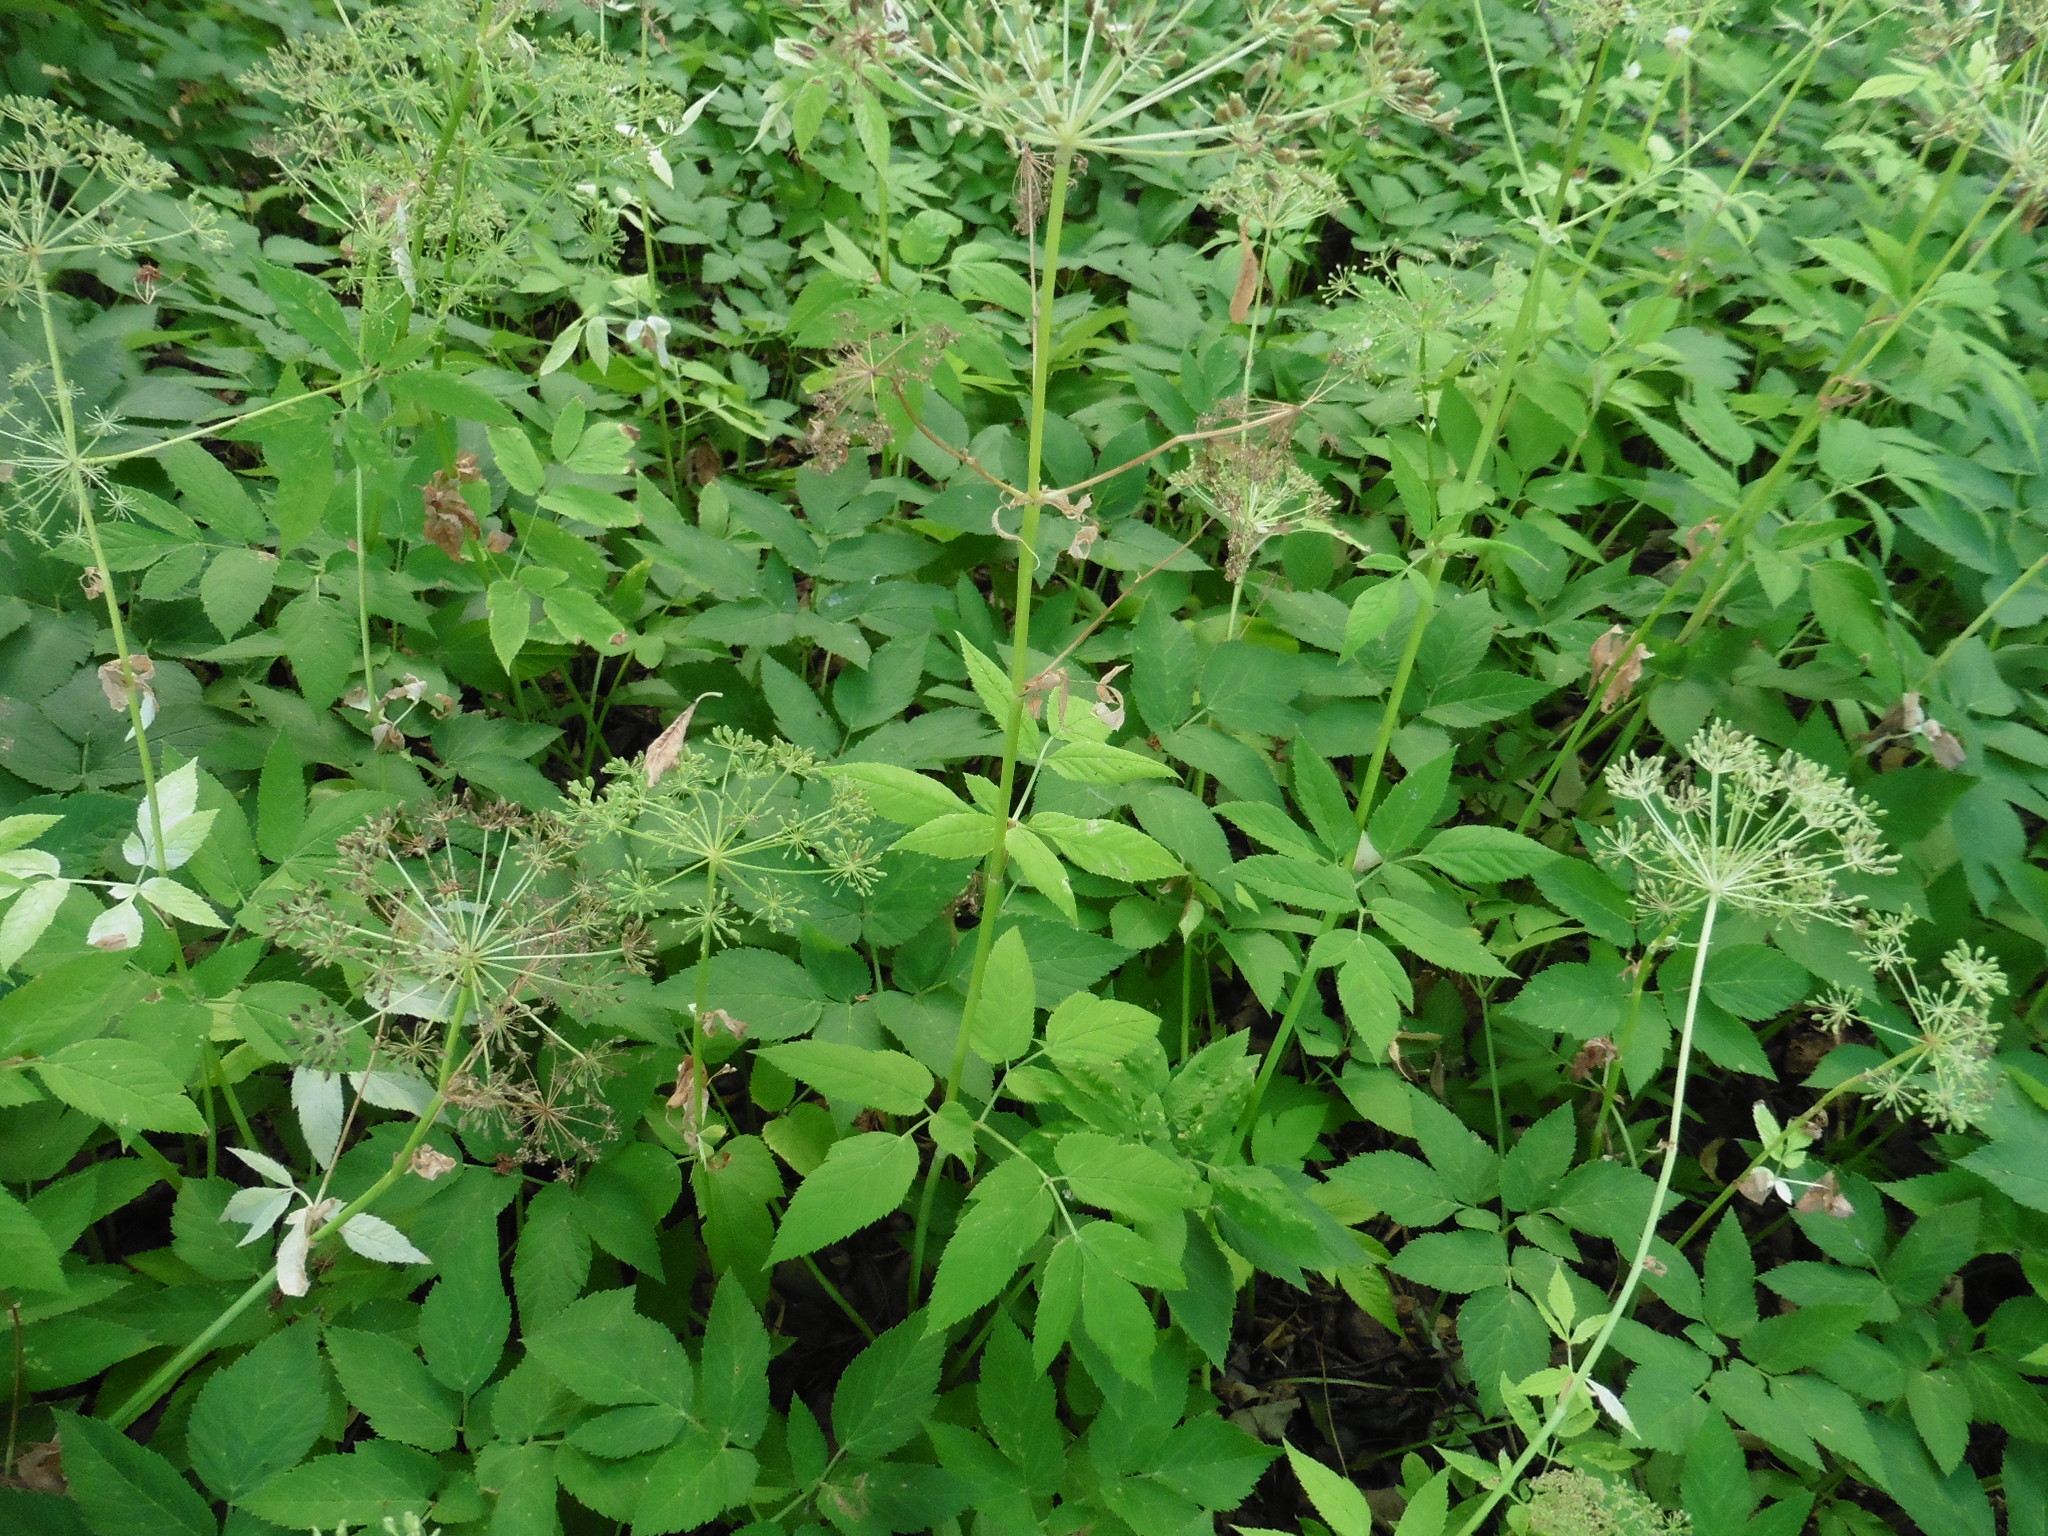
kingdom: Plantae
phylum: Tracheophyta
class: Magnoliopsida
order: Apiales
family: Apiaceae
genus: Aegopodium
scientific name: Aegopodium podagraria
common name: Ground-elder
